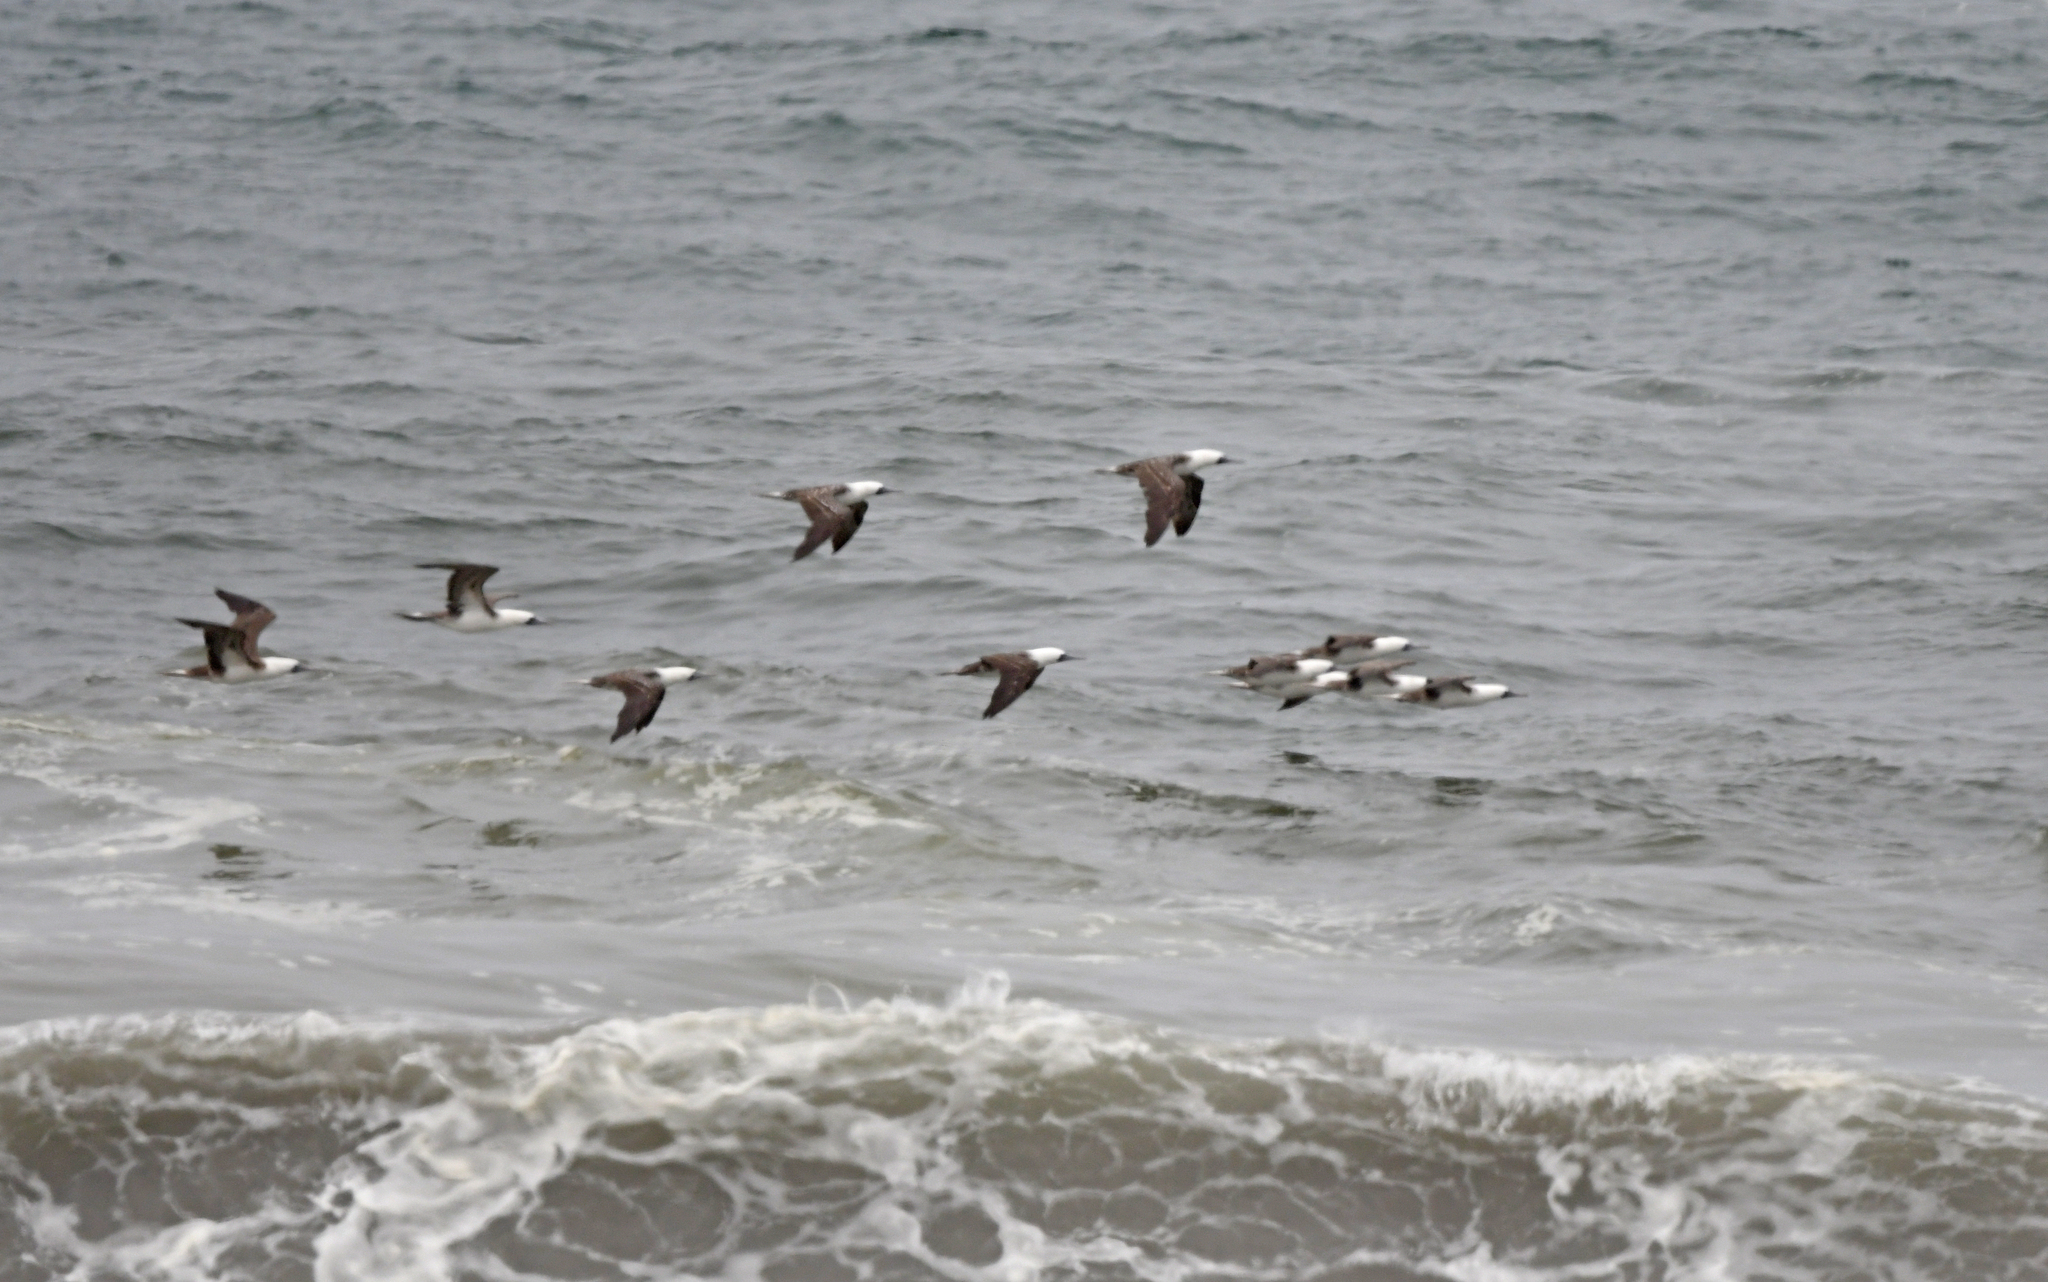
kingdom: Animalia
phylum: Chordata
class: Aves
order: Suliformes
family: Sulidae
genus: Sula
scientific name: Sula variegata
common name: Peruvian booby
